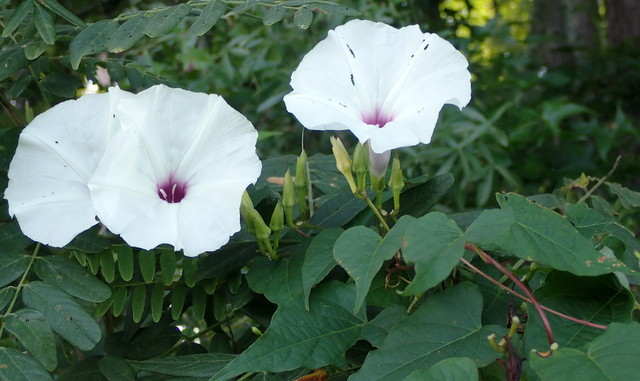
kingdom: Plantae
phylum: Tracheophyta
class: Magnoliopsida
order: Solanales
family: Convolvulaceae
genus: Ipomoea
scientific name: Ipomoea pandurata
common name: Man-of-the-earth
